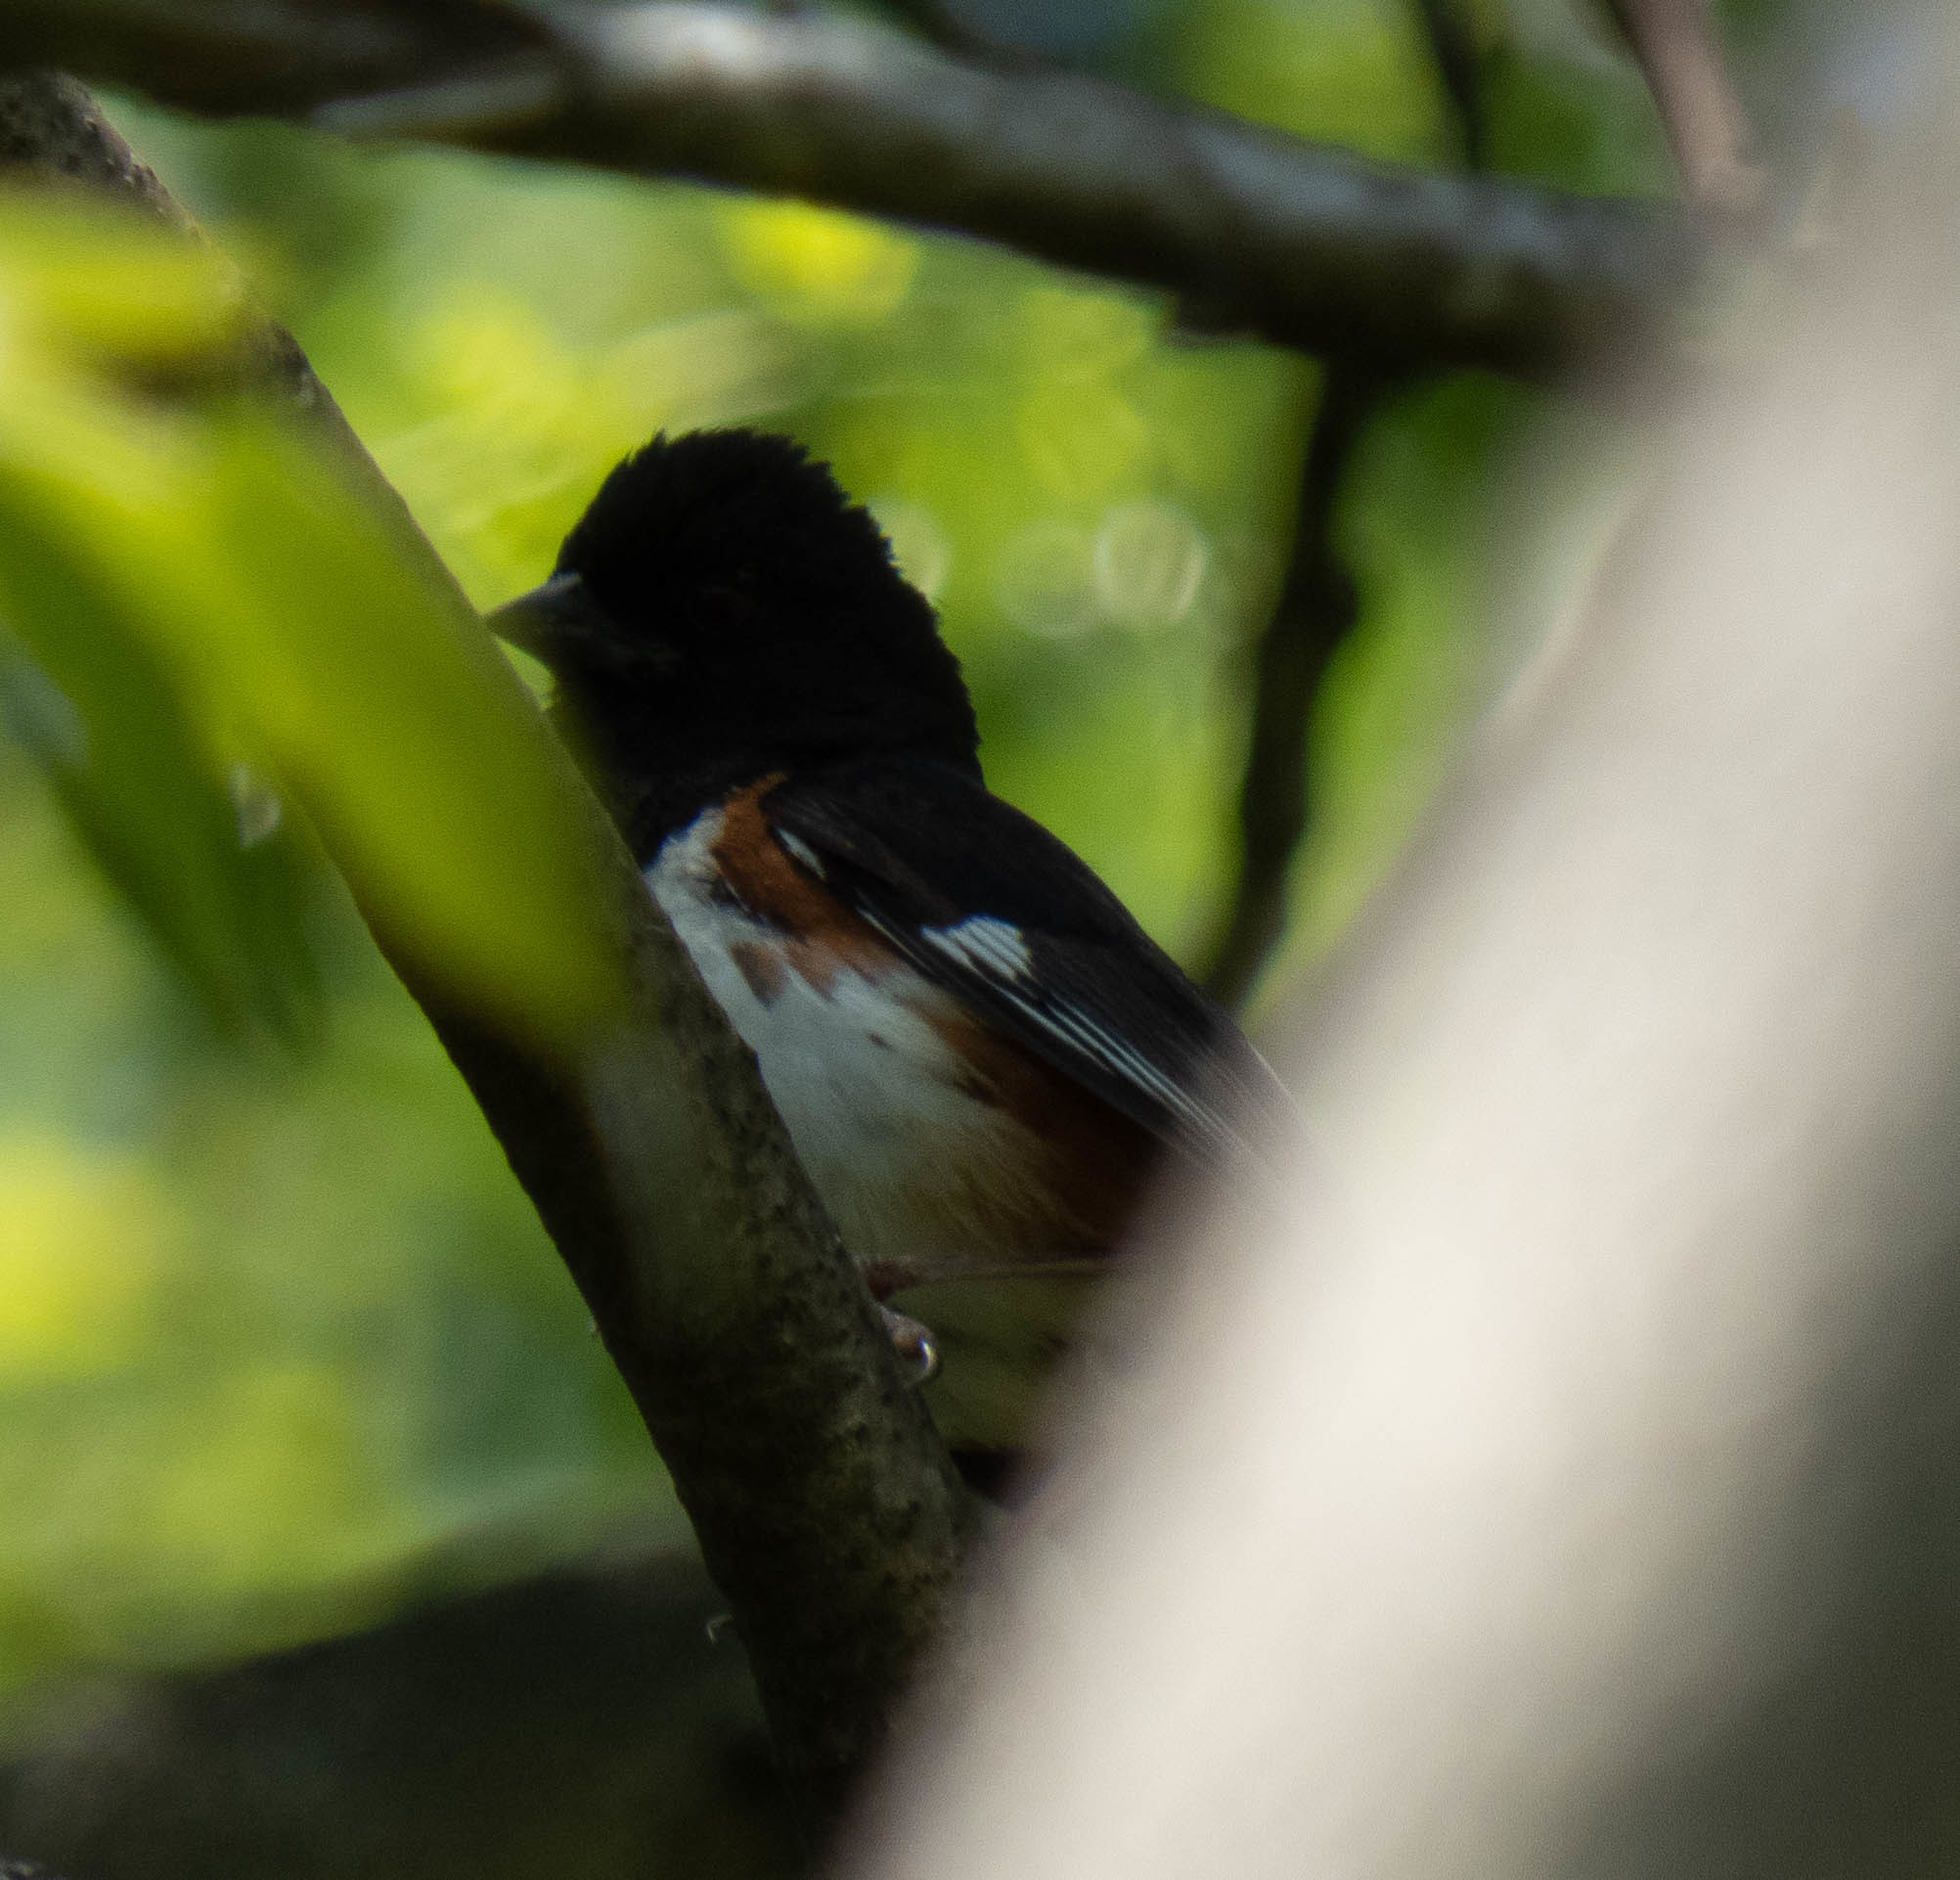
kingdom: Animalia
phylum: Chordata
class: Aves
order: Passeriformes
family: Passerellidae
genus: Pipilo
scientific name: Pipilo erythrophthalmus
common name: Eastern towhee
